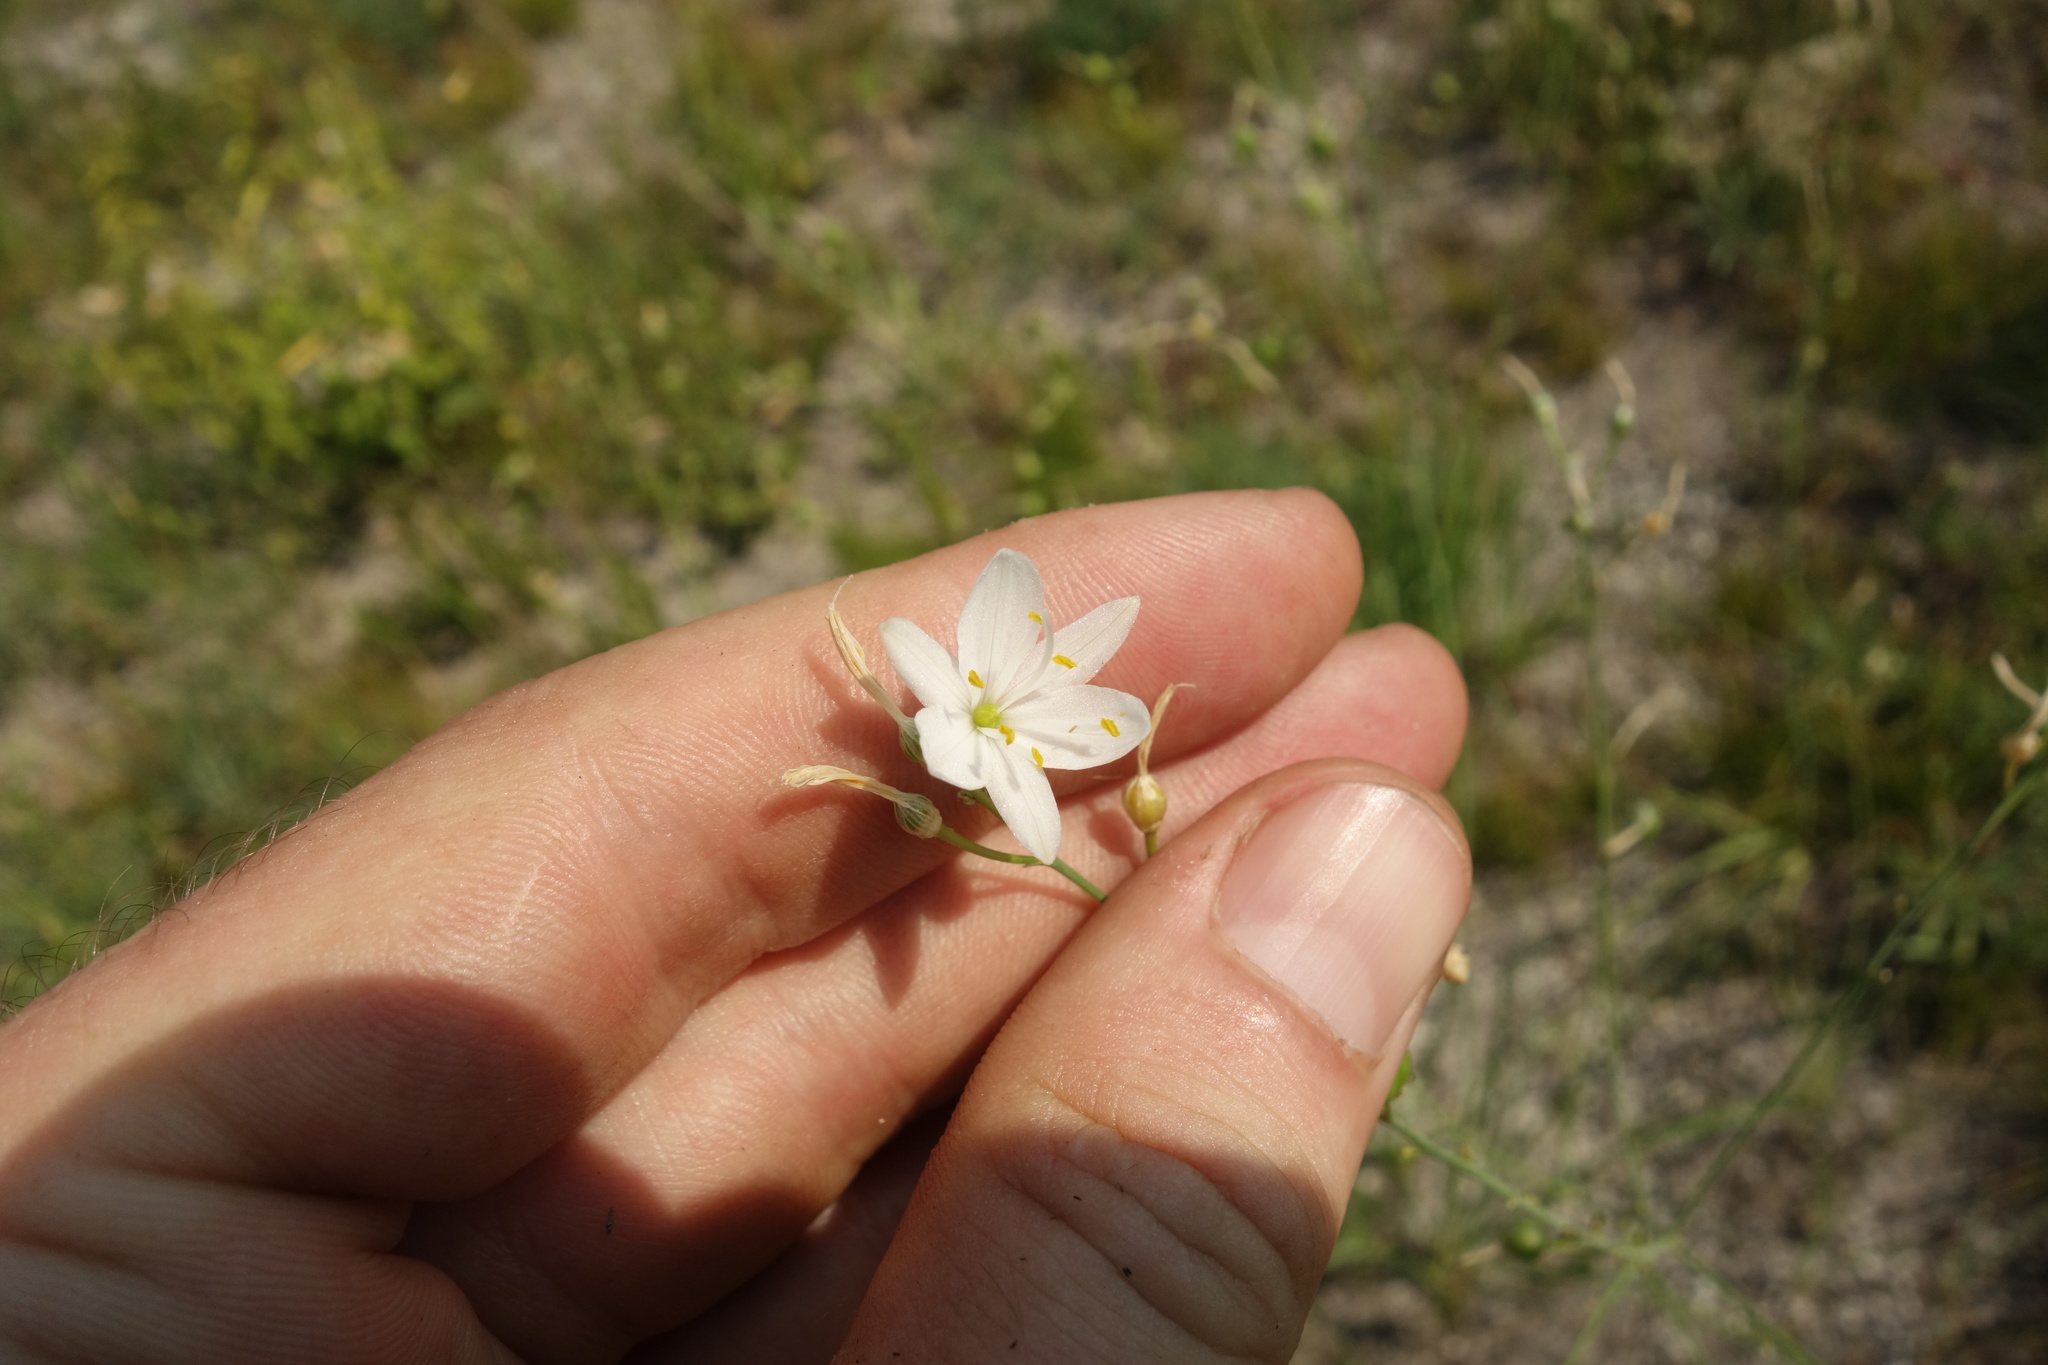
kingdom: Plantae
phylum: Tracheophyta
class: Liliopsida
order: Asparagales
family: Asparagaceae
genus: Anthericum
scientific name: Anthericum ramosum
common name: Branched st. bernard's-lily
